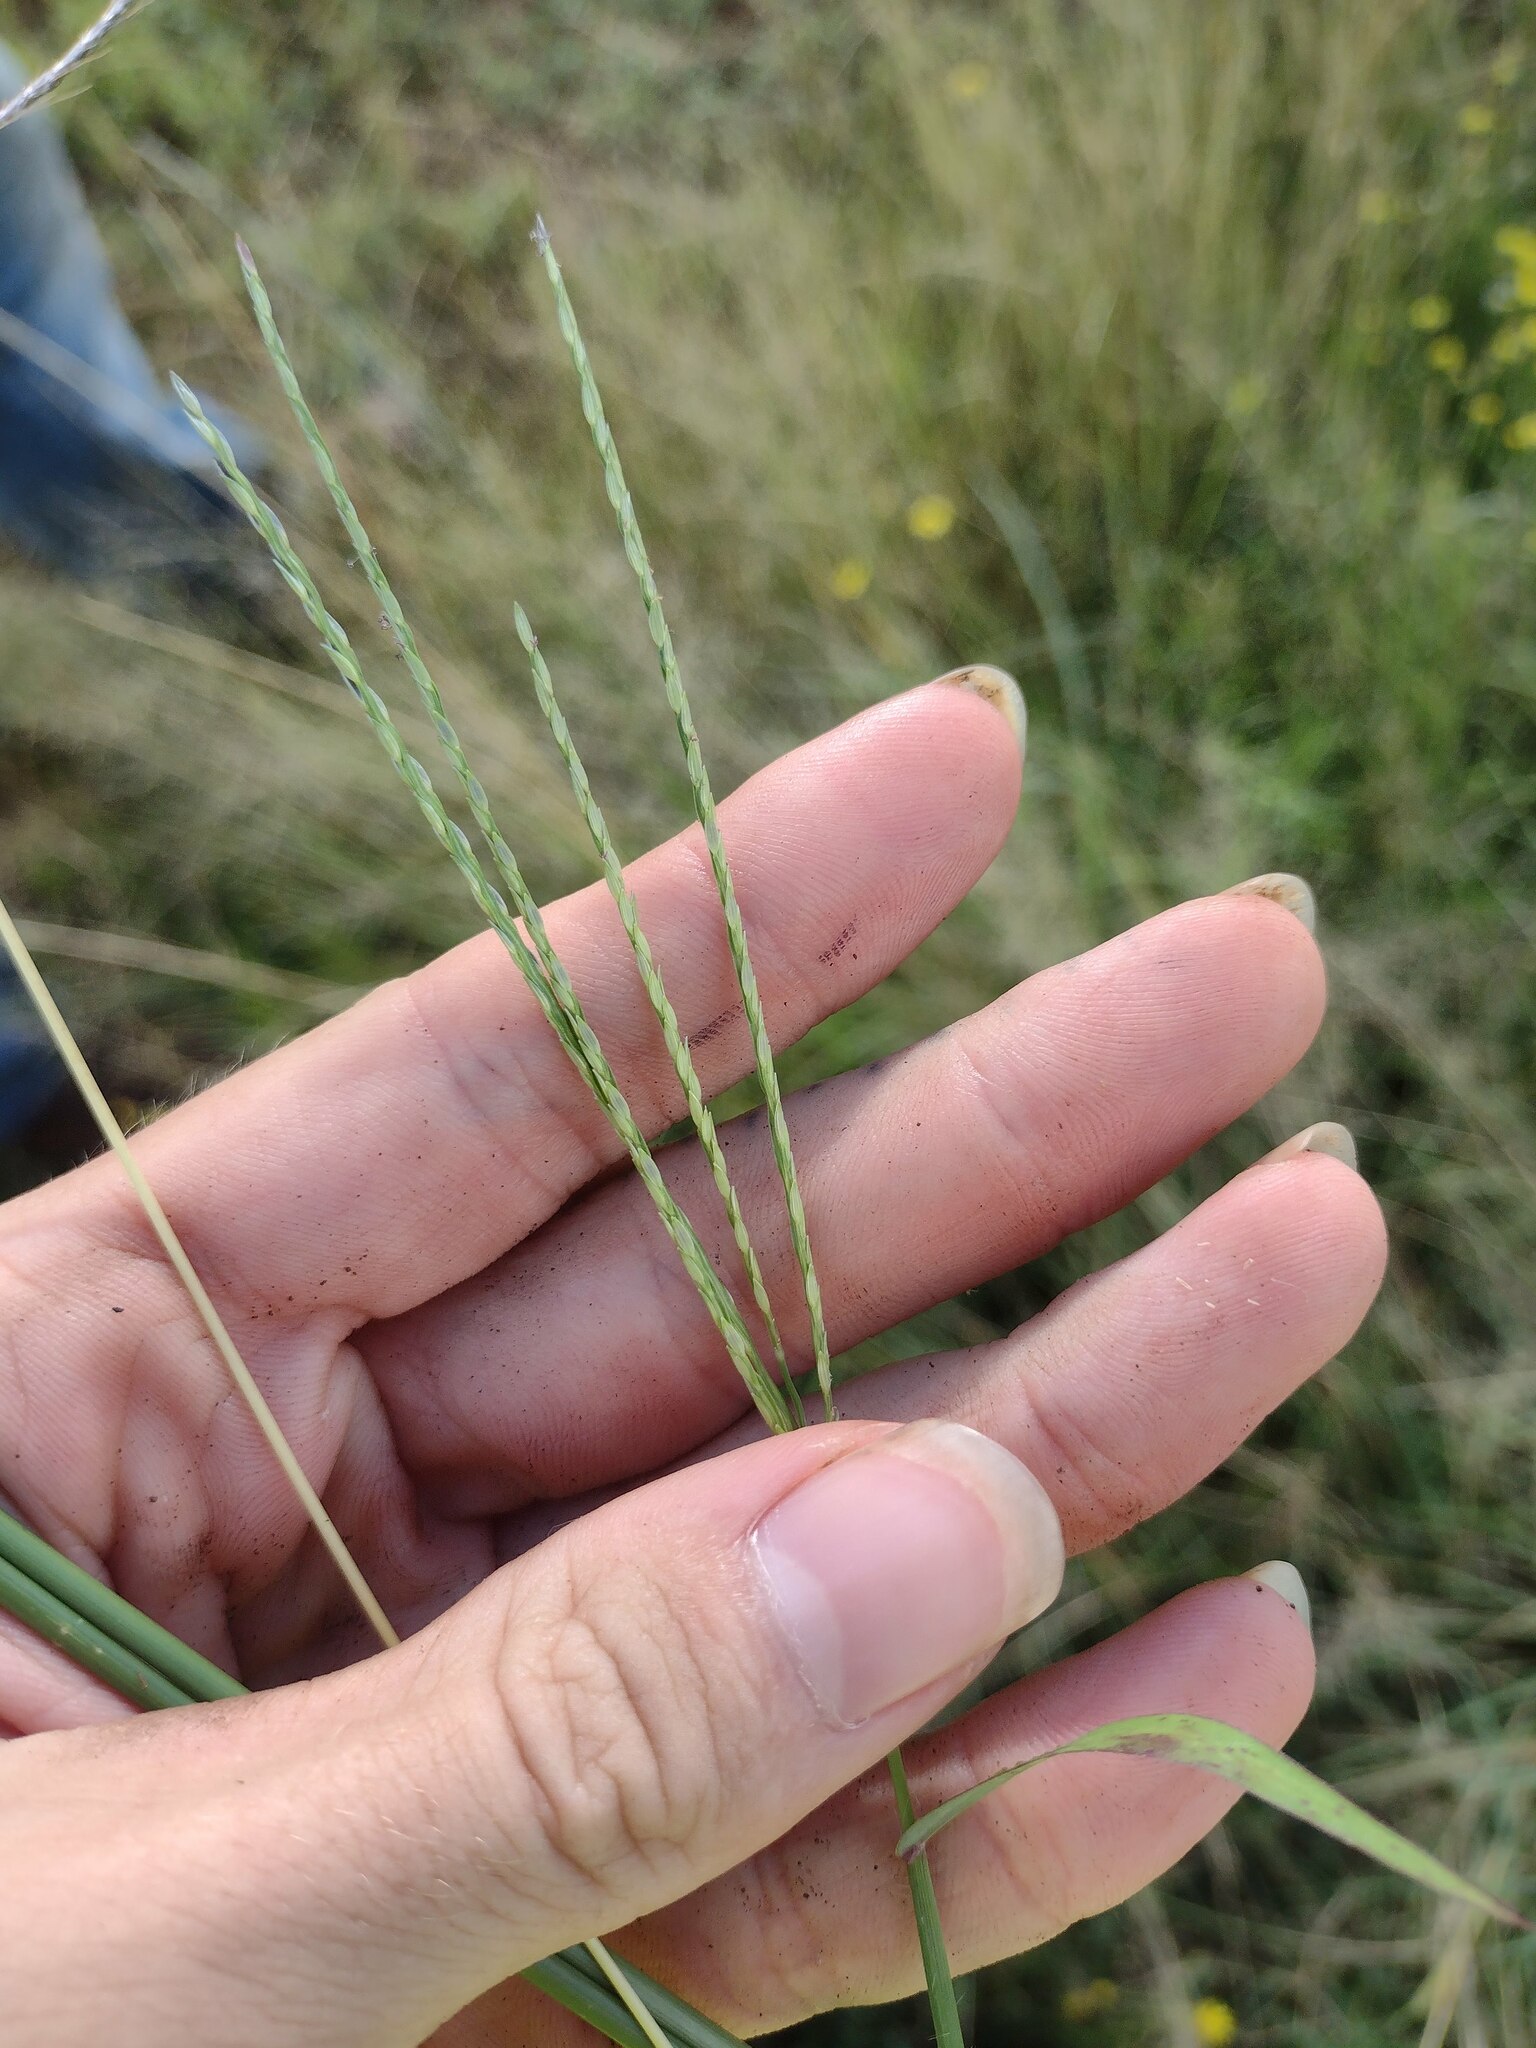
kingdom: Plantae
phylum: Tracheophyta
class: Liliopsida
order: Poales
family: Poaceae
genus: Digitaria
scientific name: Digitaria ciliaris
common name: Tropical finger-grass
